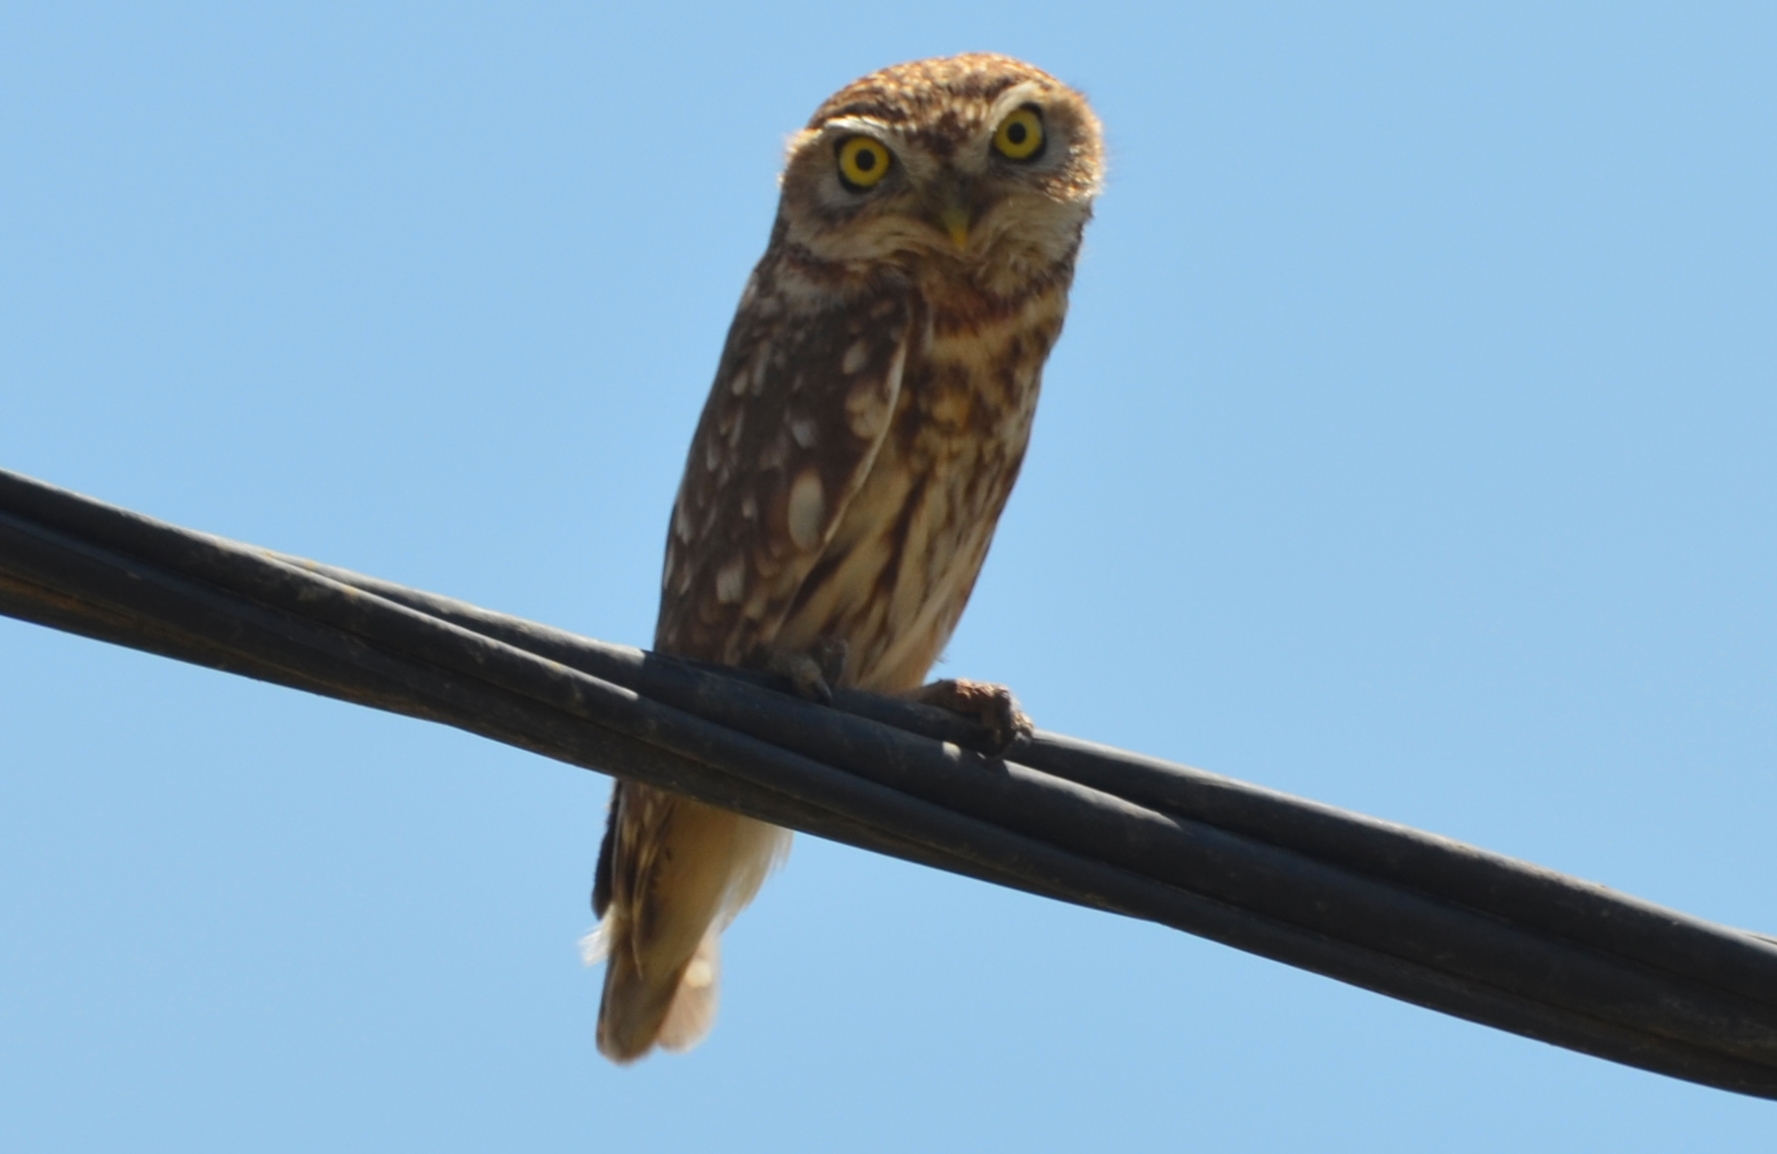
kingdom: Animalia
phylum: Chordata
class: Aves
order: Strigiformes
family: Strigidae
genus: Athene
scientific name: Athene noctua
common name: Little owl
